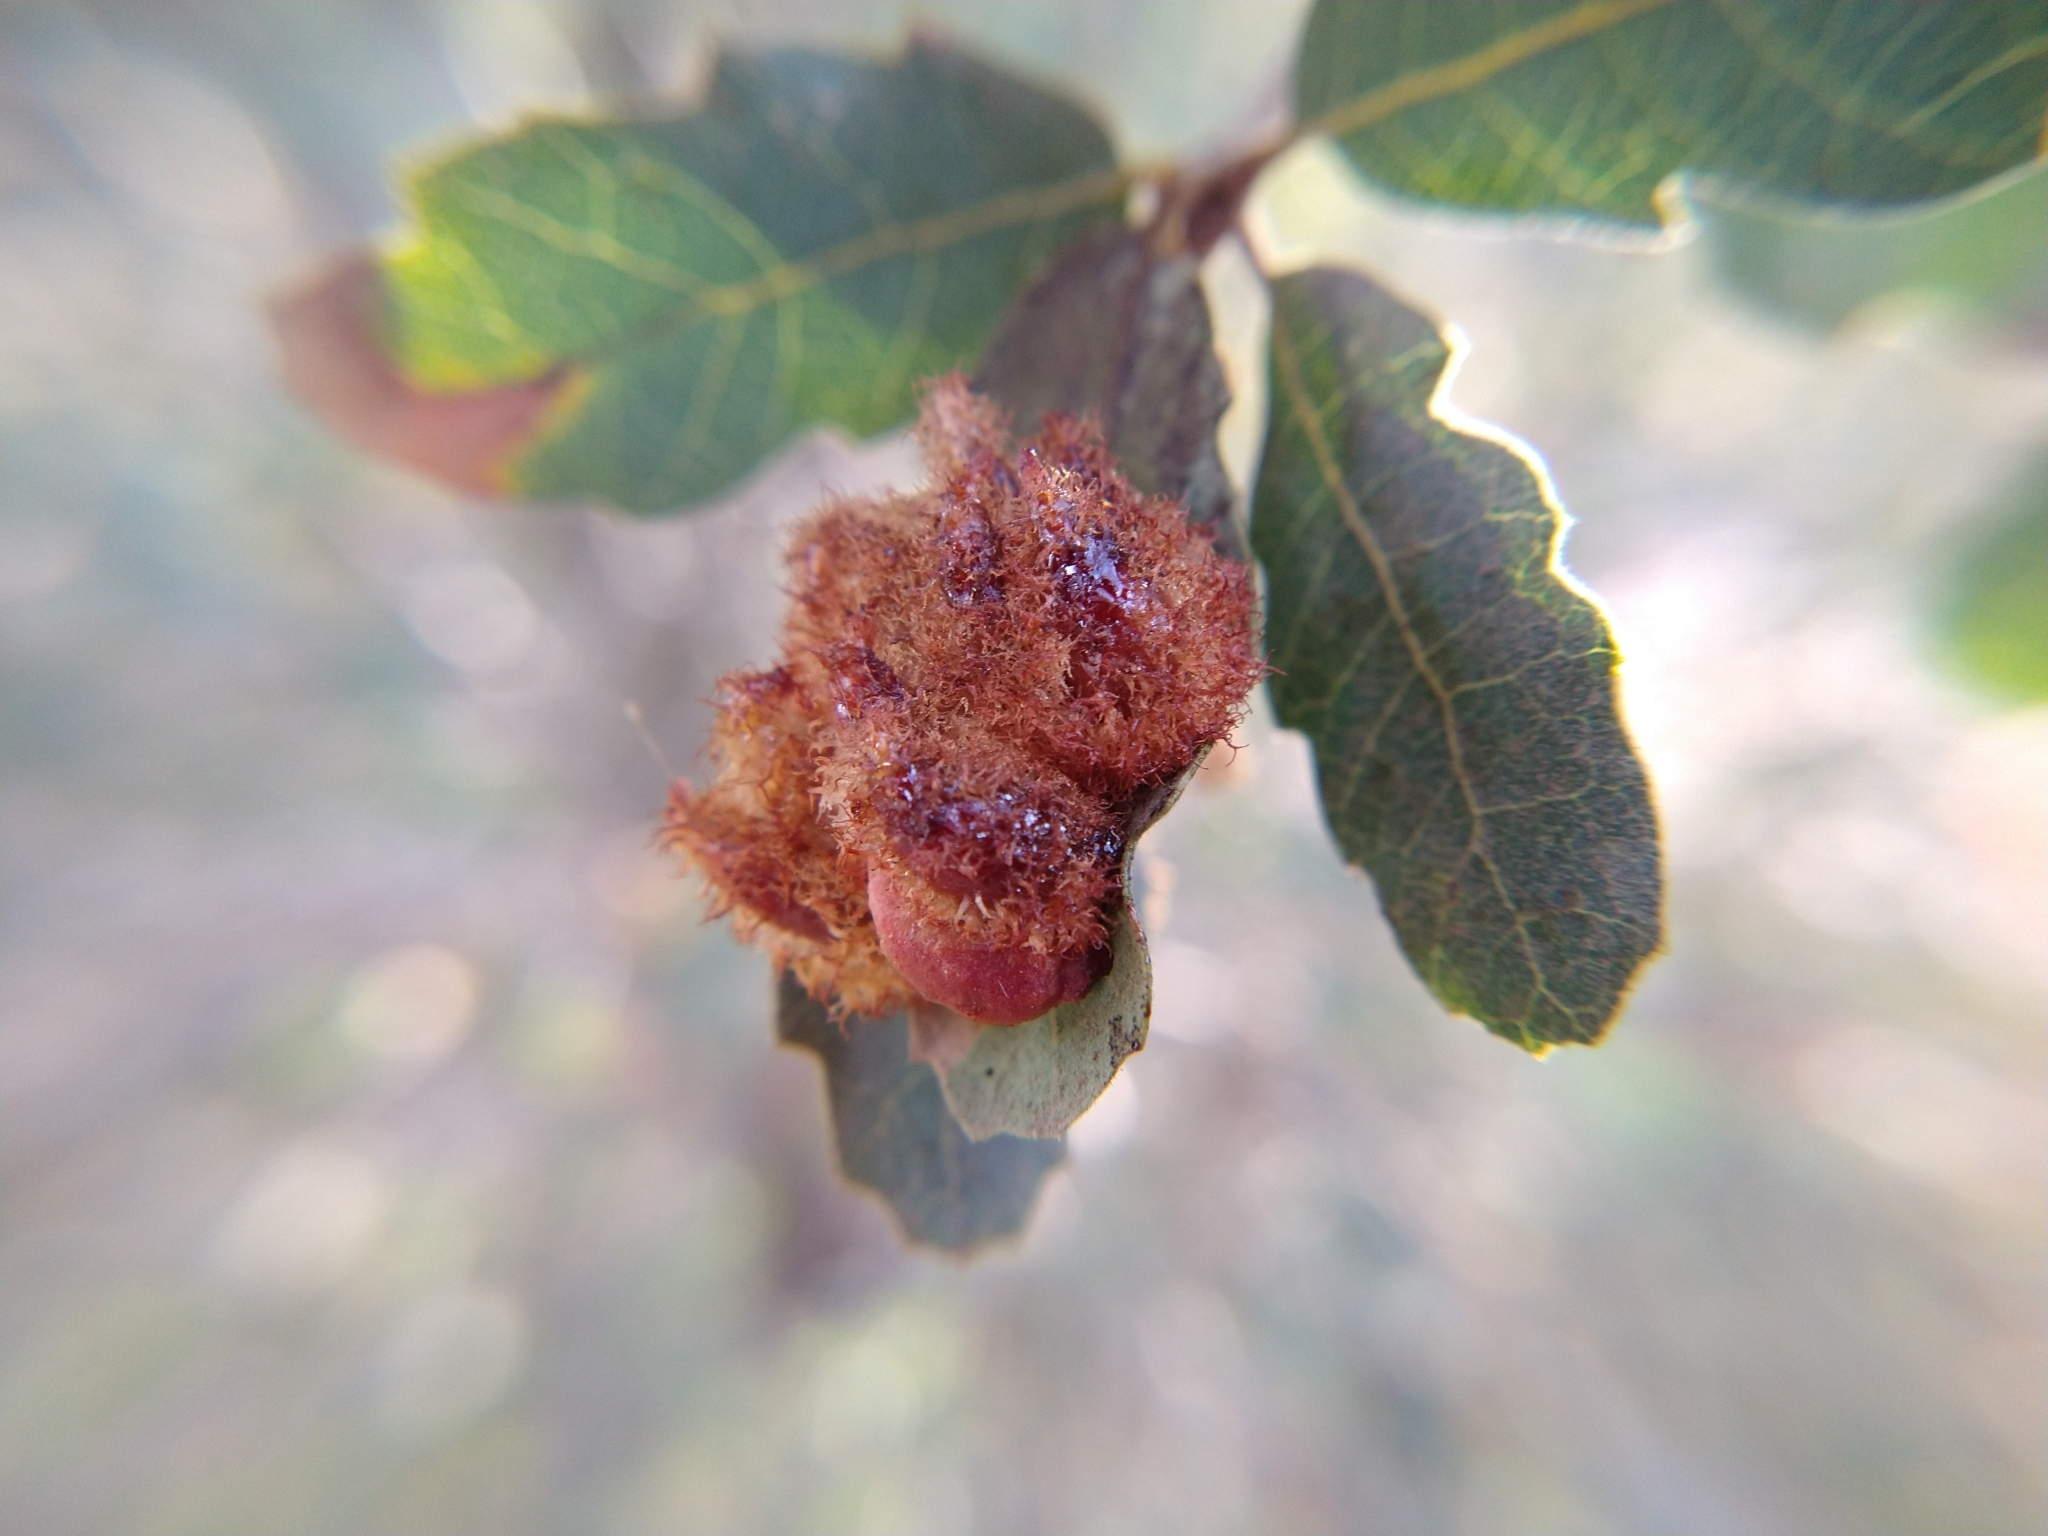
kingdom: Animalia
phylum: Arthropoda
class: Insecta
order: Hymenoptera
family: Cynipidae
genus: Andricus
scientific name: Andricus
